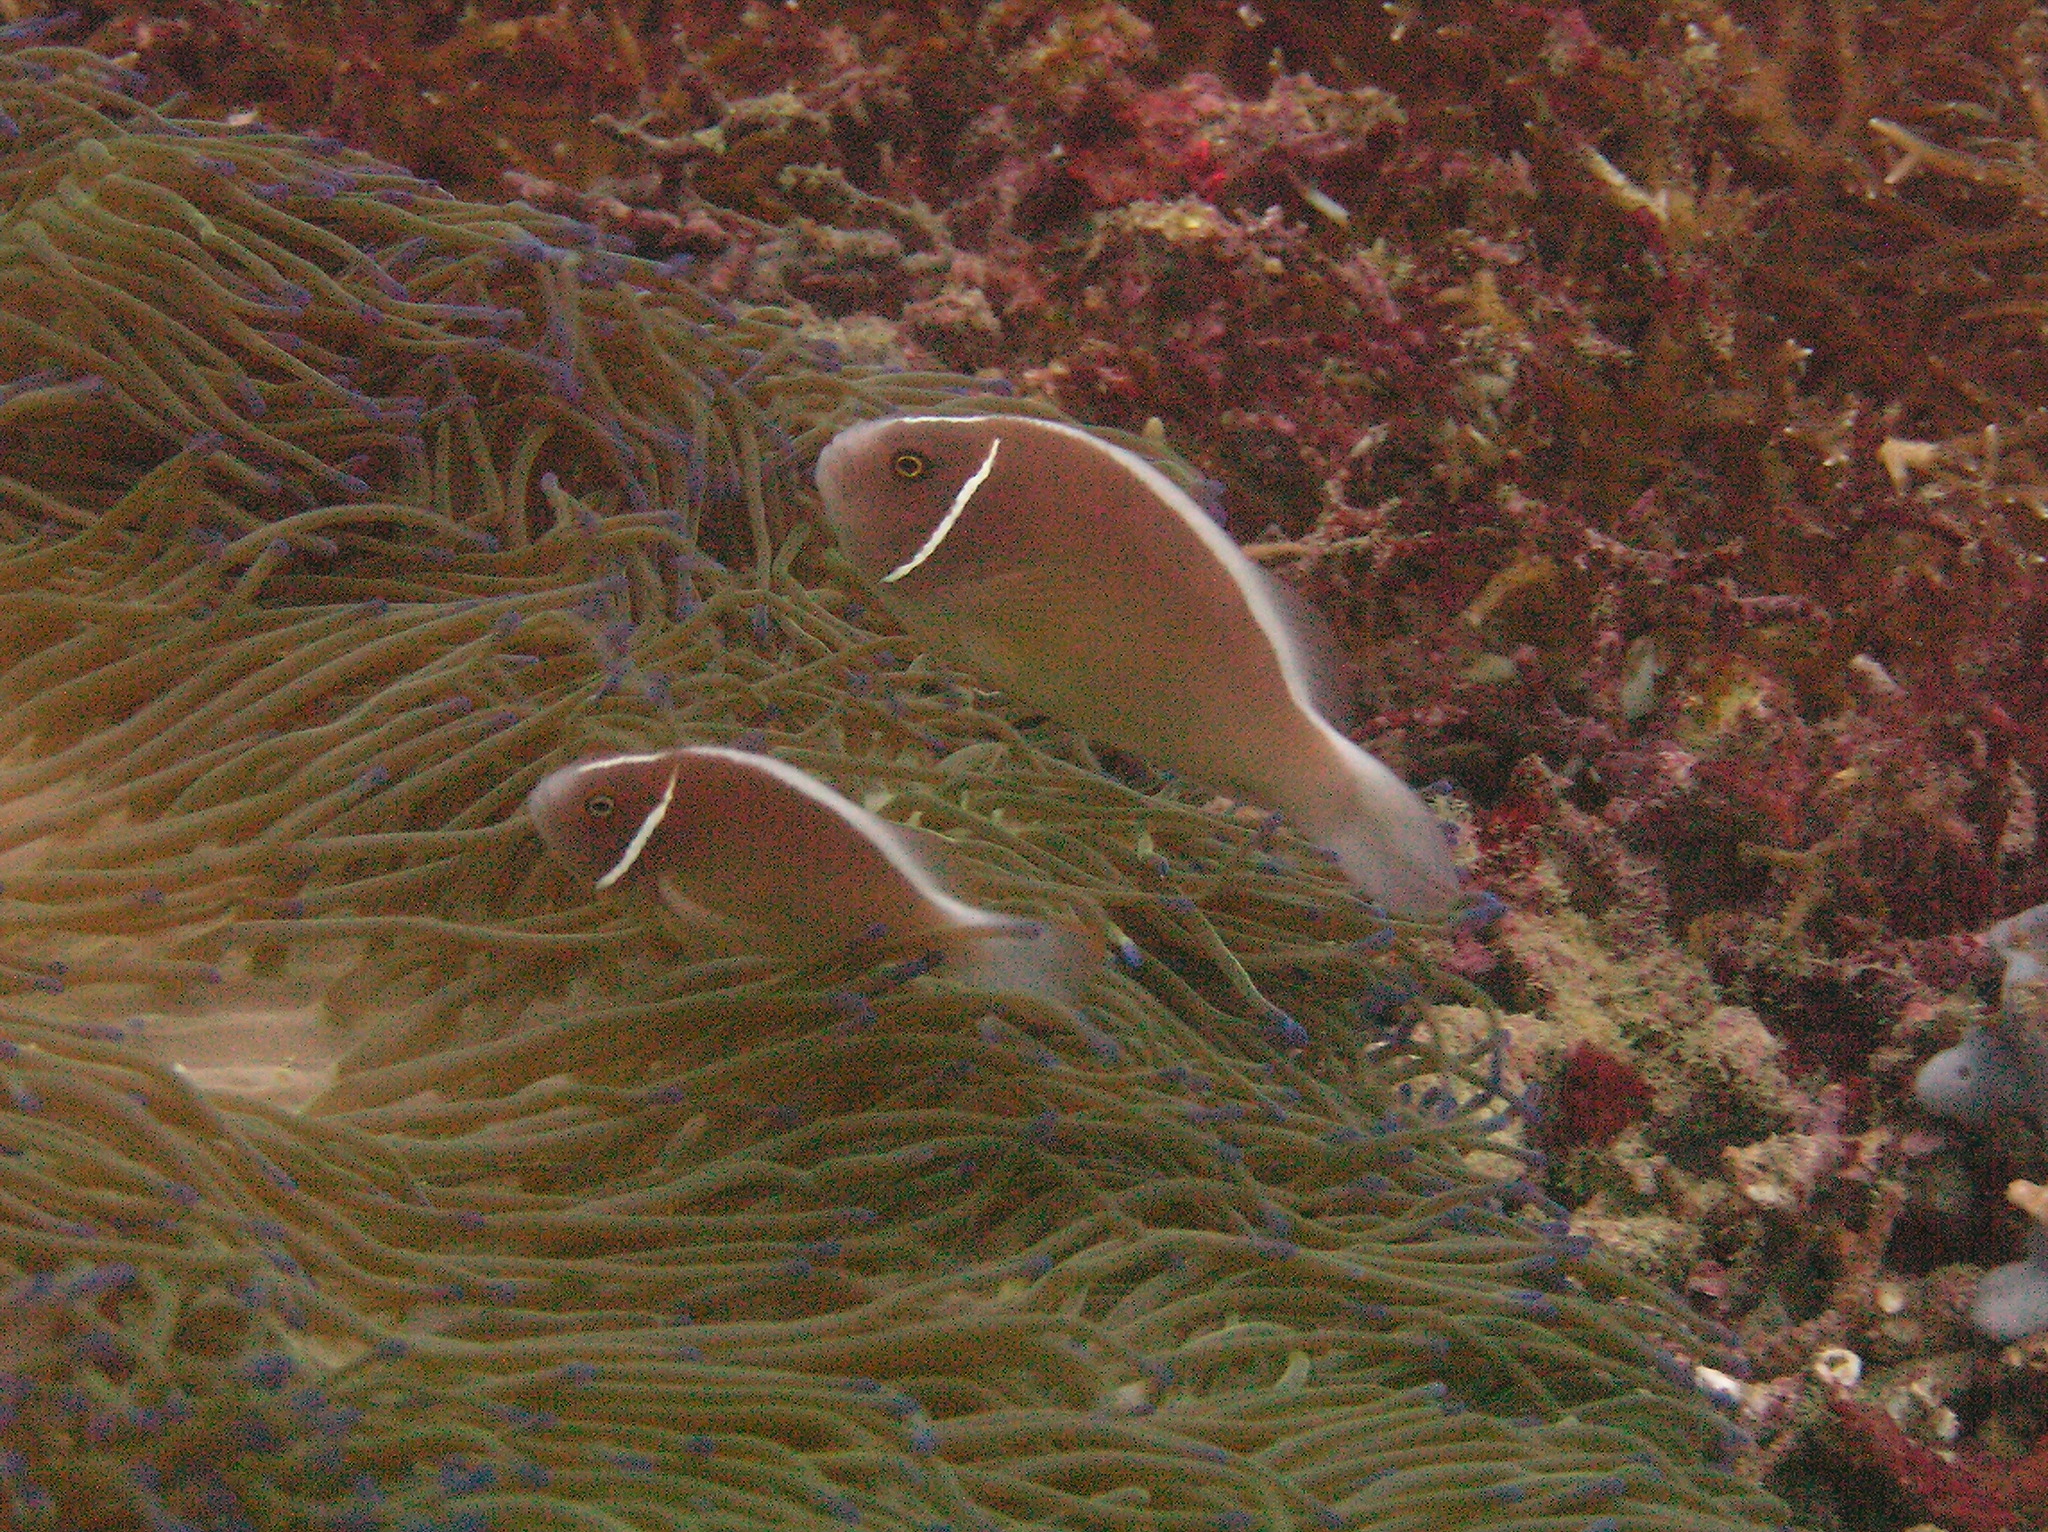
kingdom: Animalia
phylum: Chordata
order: Perciformes
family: Pomacentridae
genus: Amphiprion
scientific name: Amphiprion perideraion
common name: Pink anemonefish
